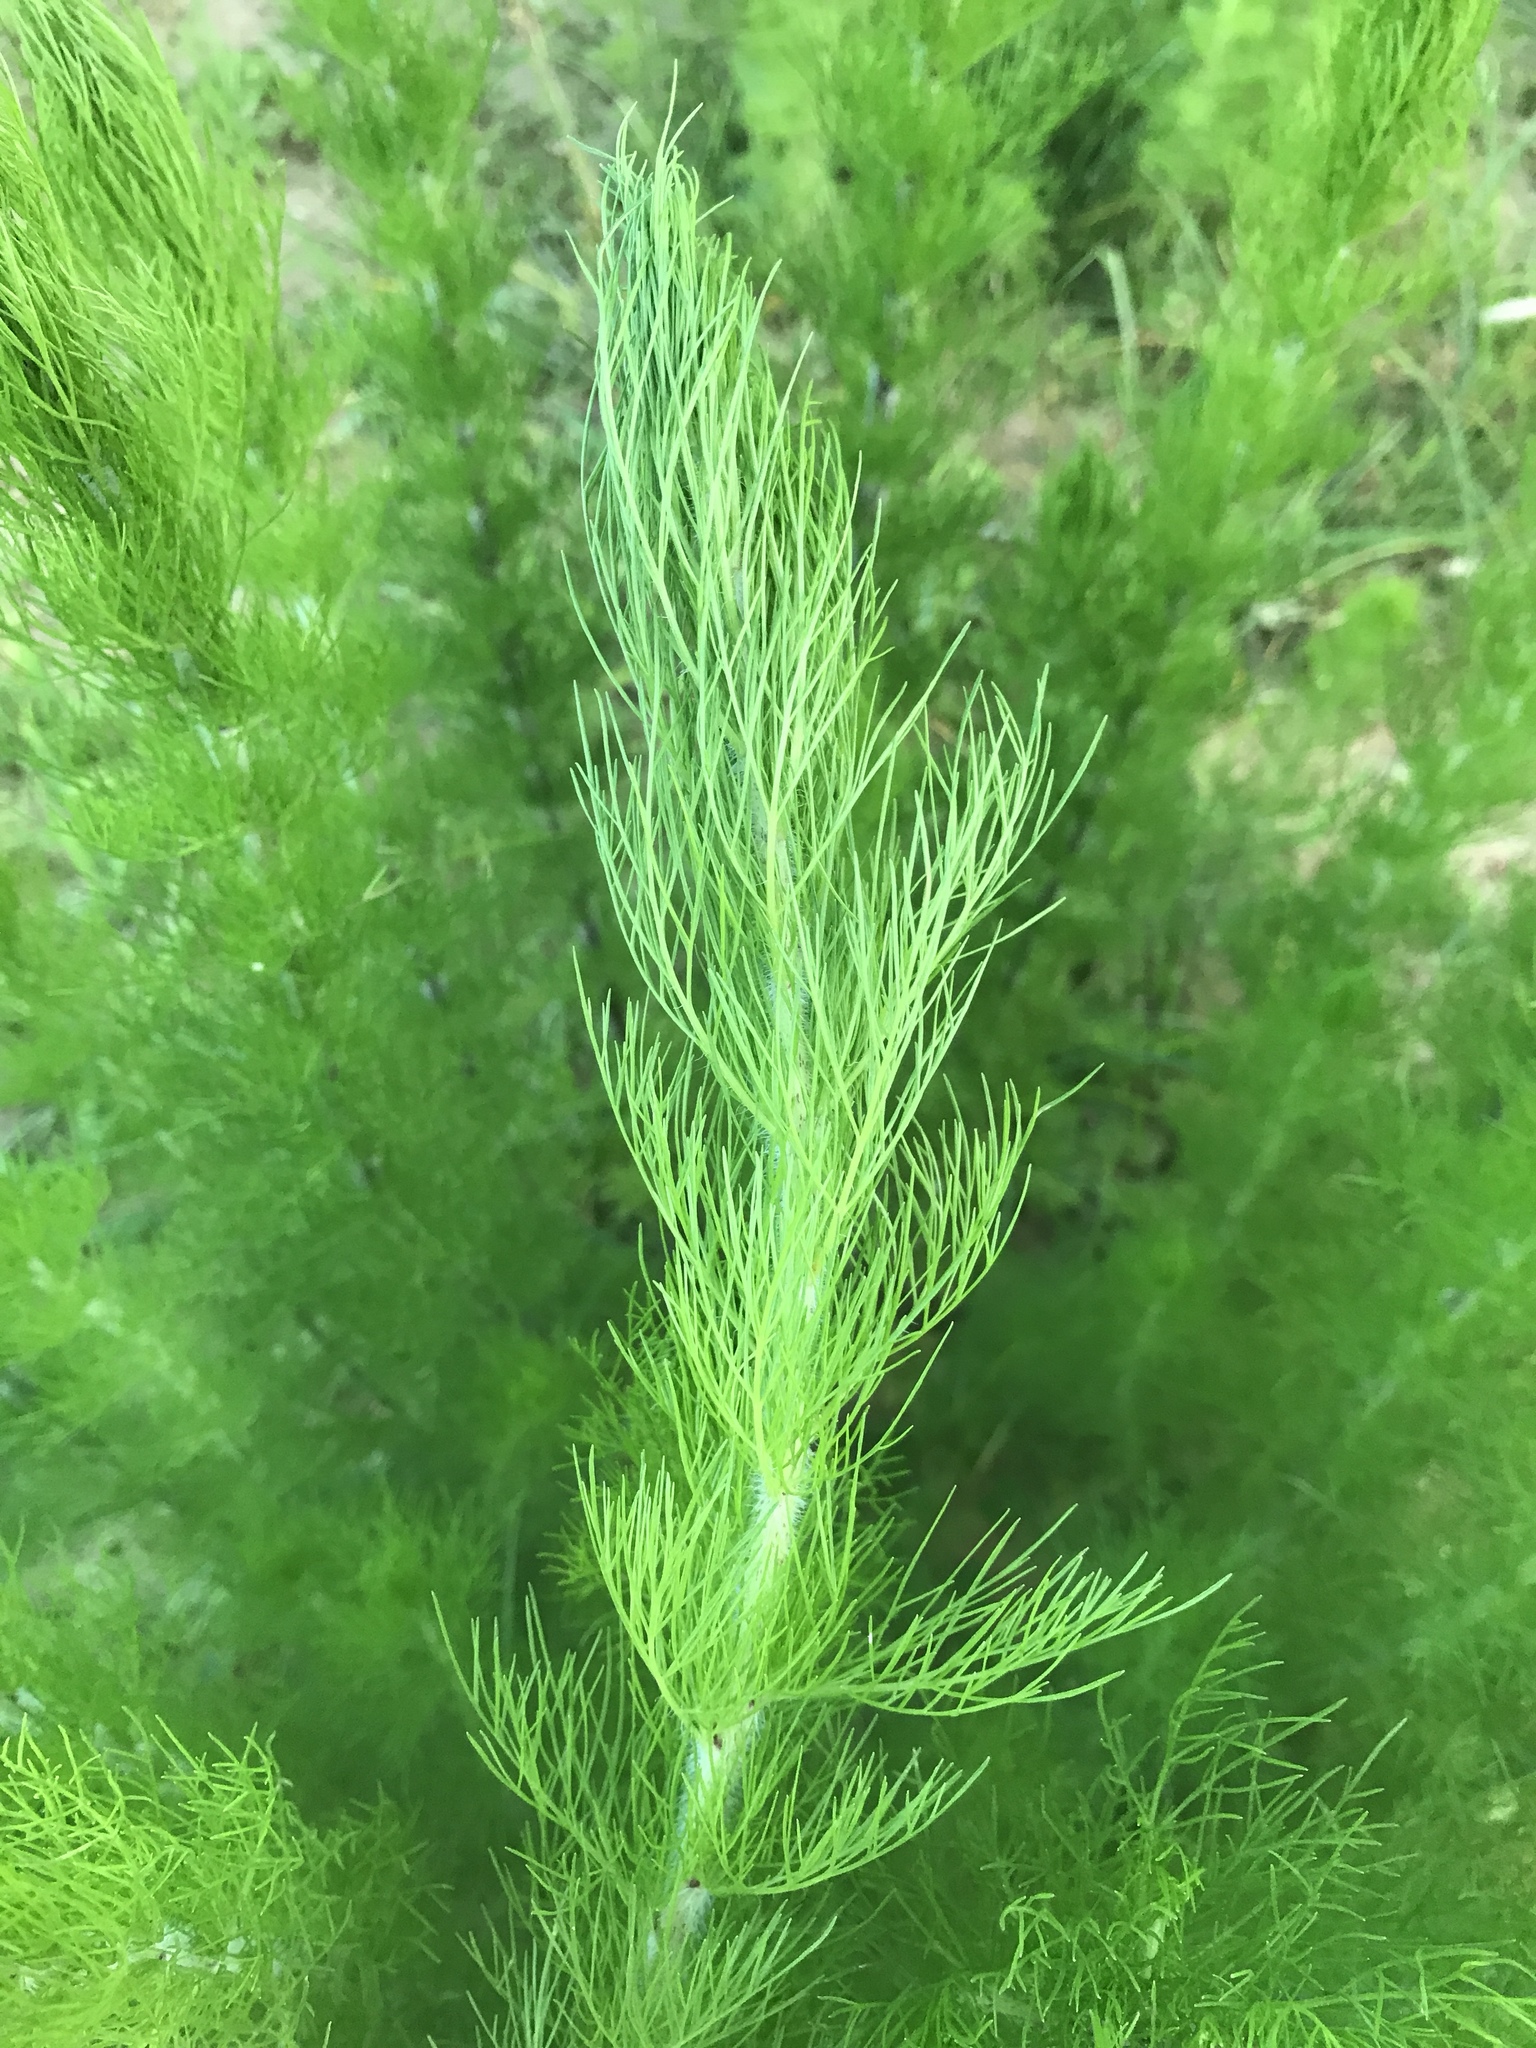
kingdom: Plantae
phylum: Tracheophyta
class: Magnoliopsida
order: Asterales
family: Asteraceae
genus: Eupatorium
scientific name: Eupatorium capillifolium
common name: Dog-fennel
